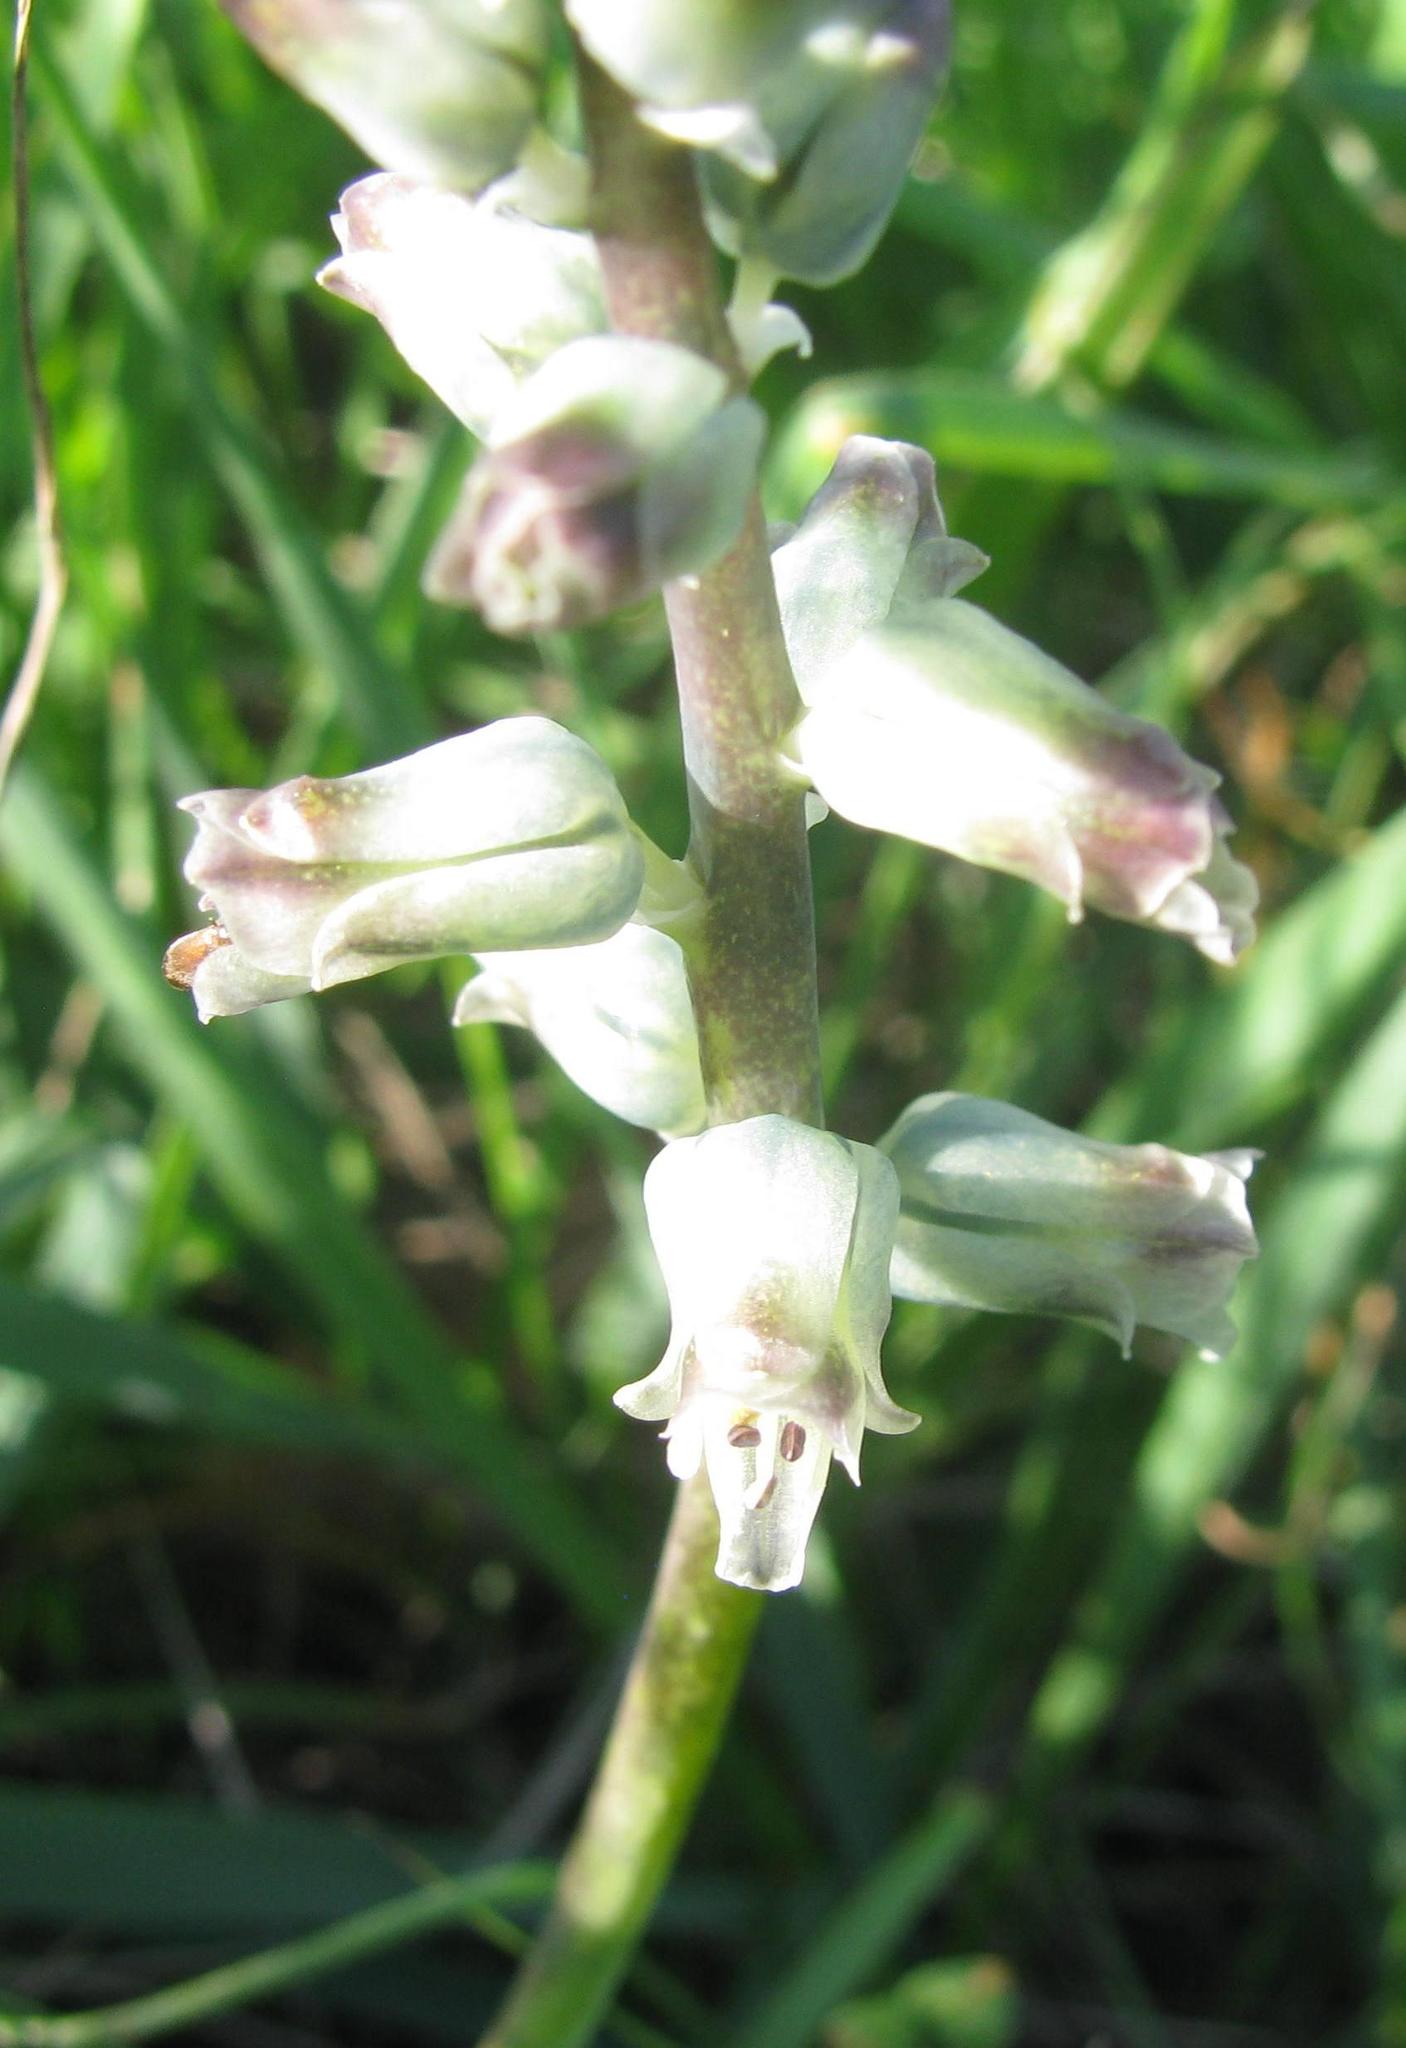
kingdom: Plantae
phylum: Tracheophyta
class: Liliopsida
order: Asparagales
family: Asparagaceae
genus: Lachenalia
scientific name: Lachenalia obscura
